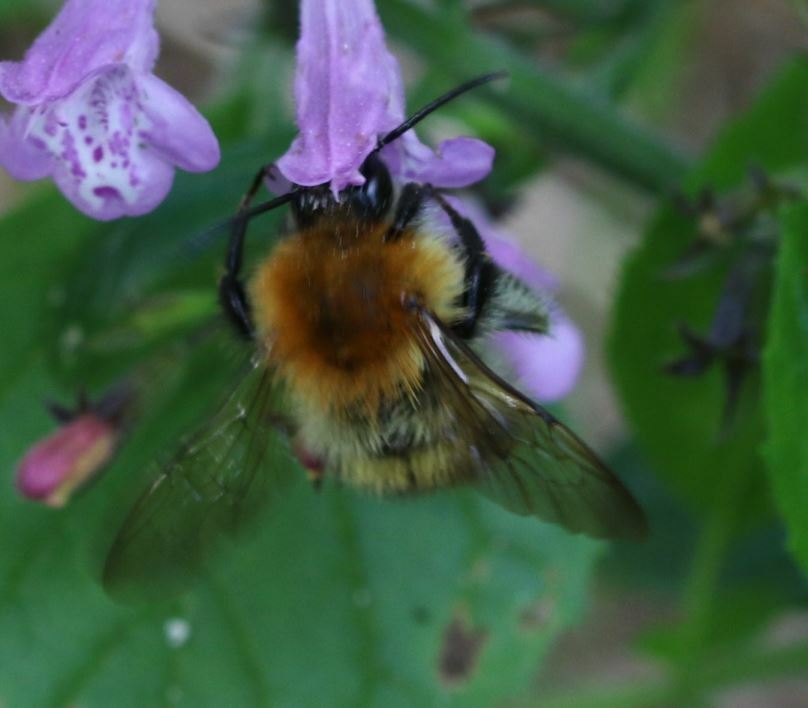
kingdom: Animalia
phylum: Arthropoda
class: Insecta
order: Hymenoptera
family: Apidae
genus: Bombus
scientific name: Bombus pascuorum
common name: Common carder bee
